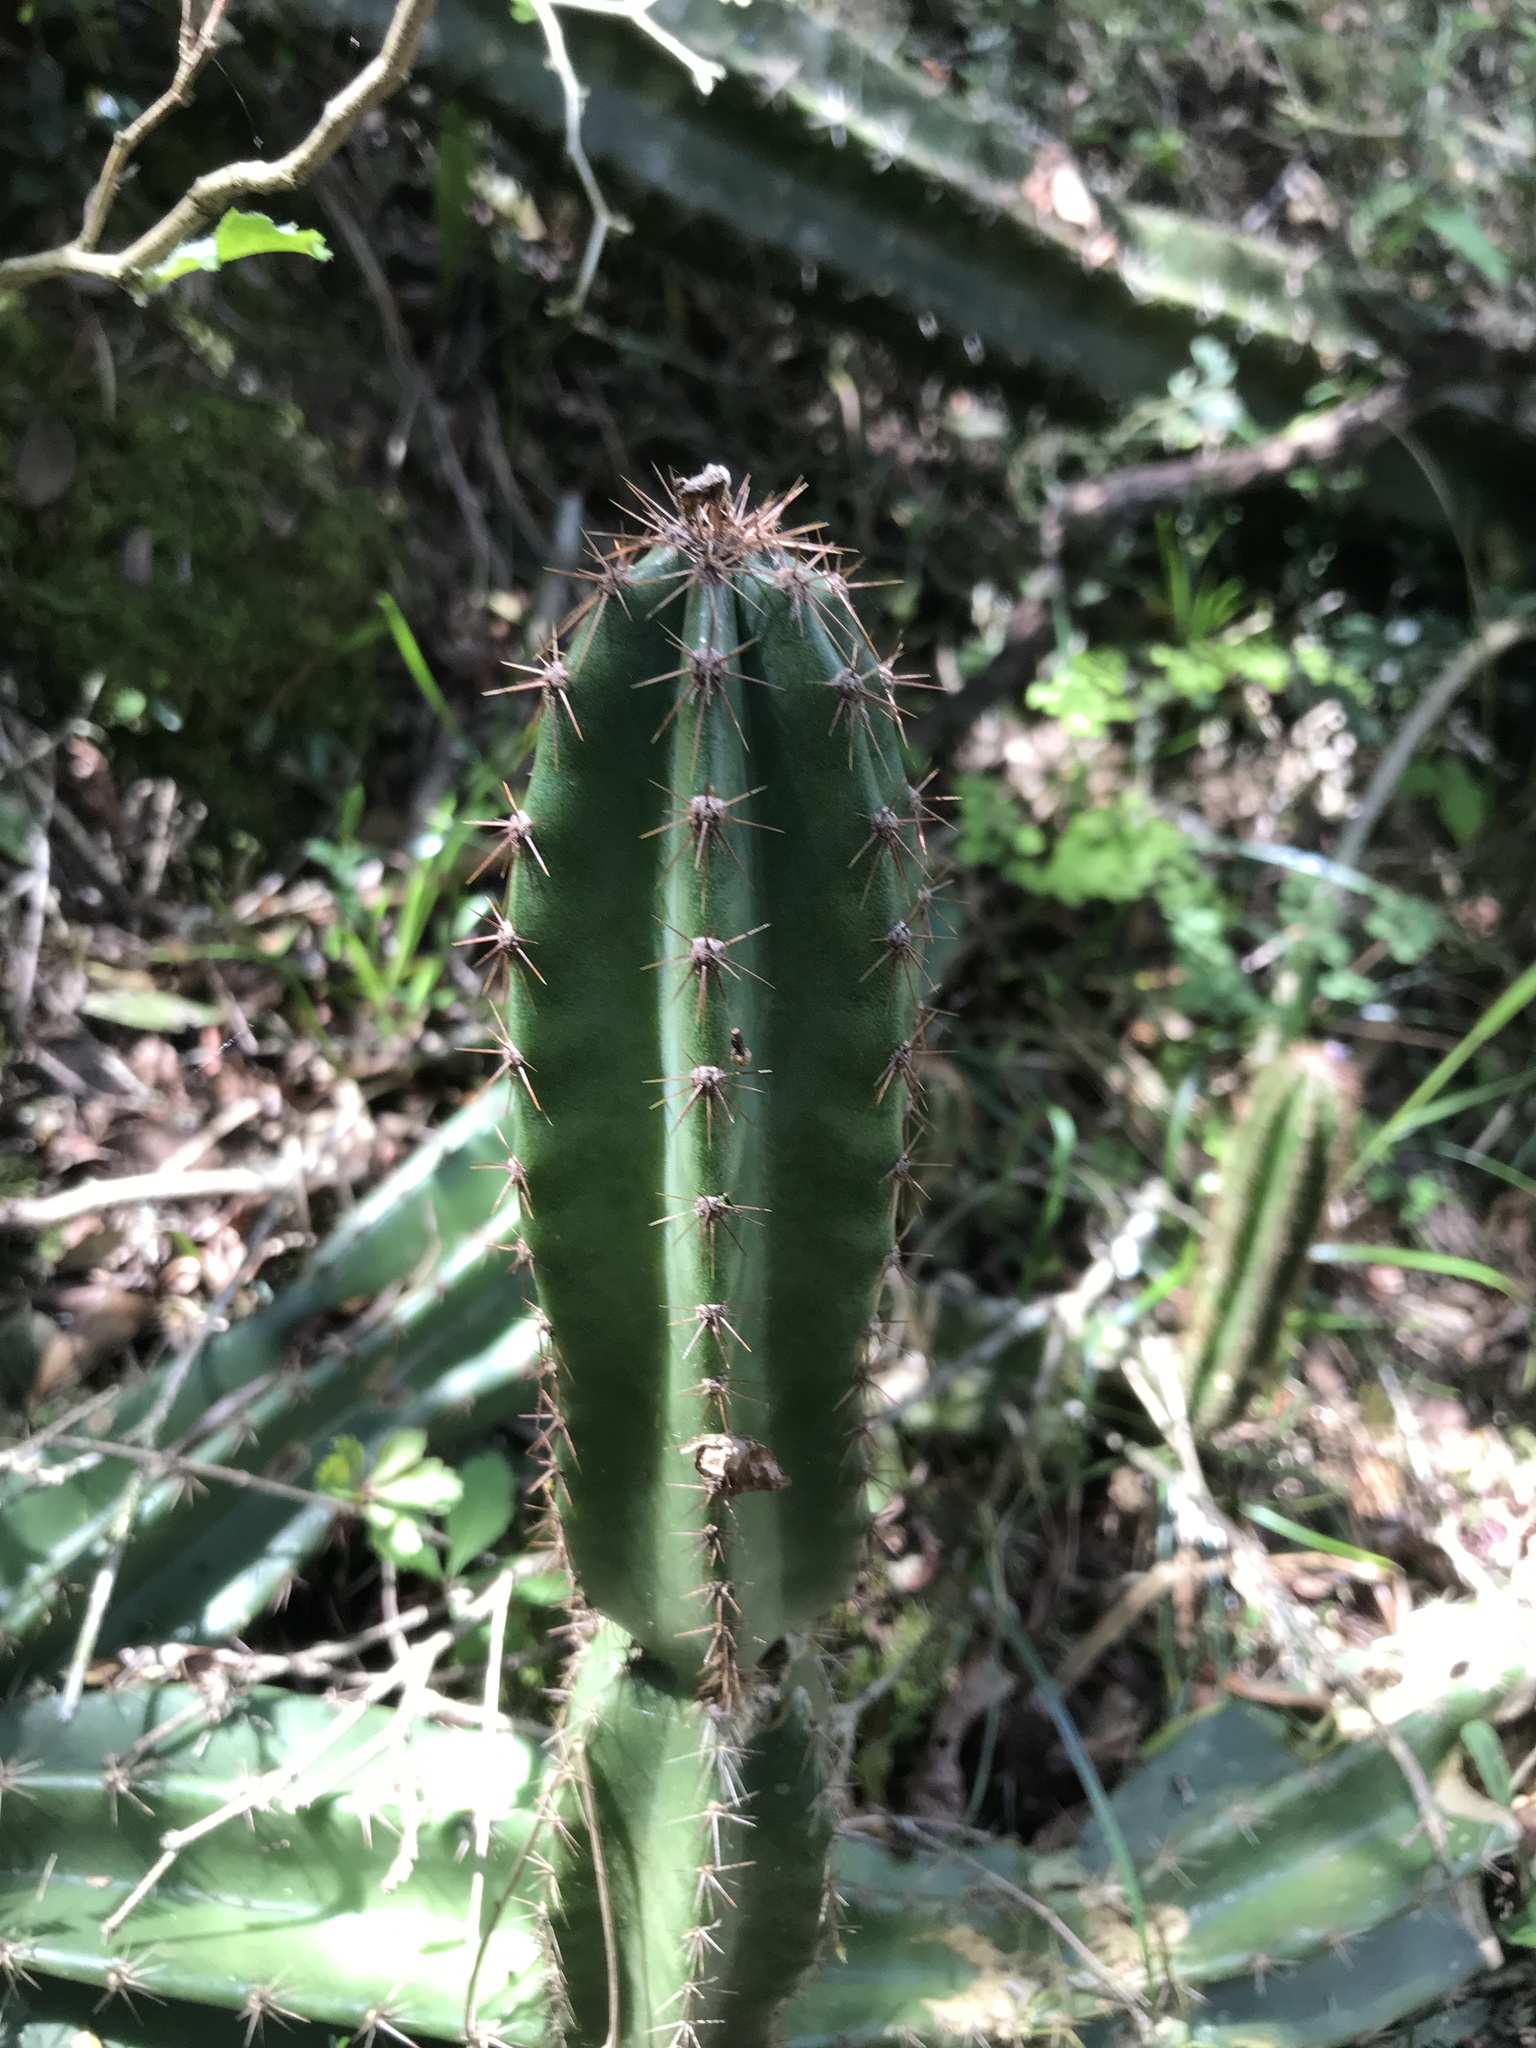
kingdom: Plantae
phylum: Tracheophyta
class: Magnoliopsida
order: Caryophyllales
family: Cactaceae
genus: Cereus
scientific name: Cereus hildmannianus
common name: Hedge cactus
